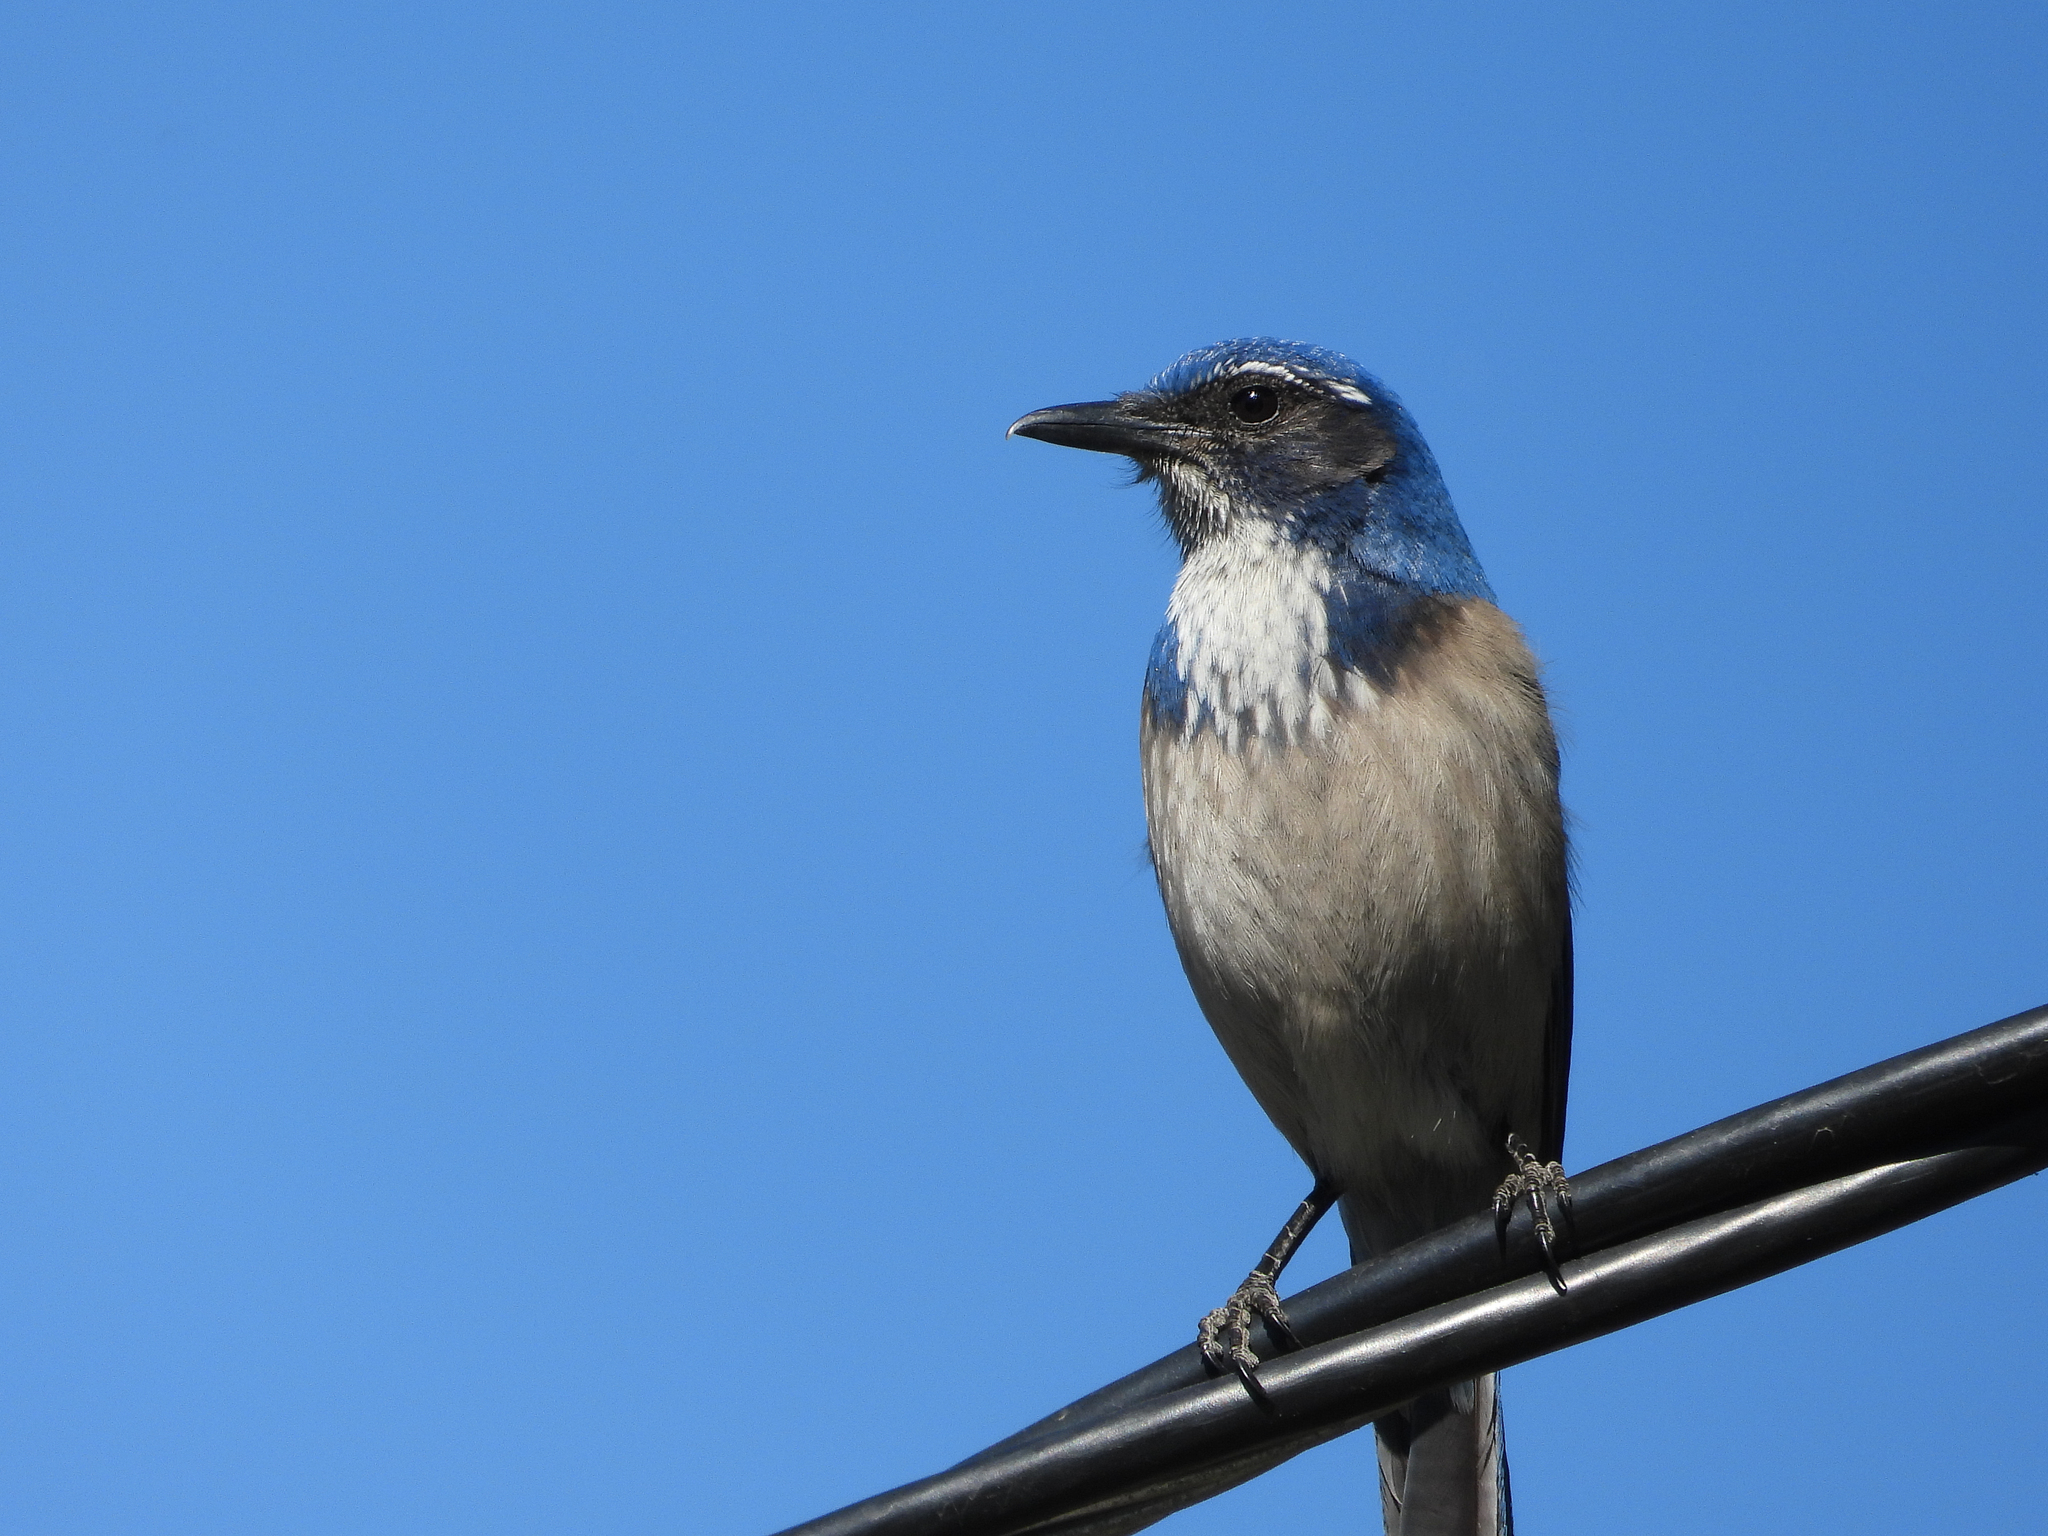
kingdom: Animalia
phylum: Chordata
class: Aves
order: Passeriformes
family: Corvidae
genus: Aphelocoma
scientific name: Aphelocoma californica
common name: California scrub-jay
